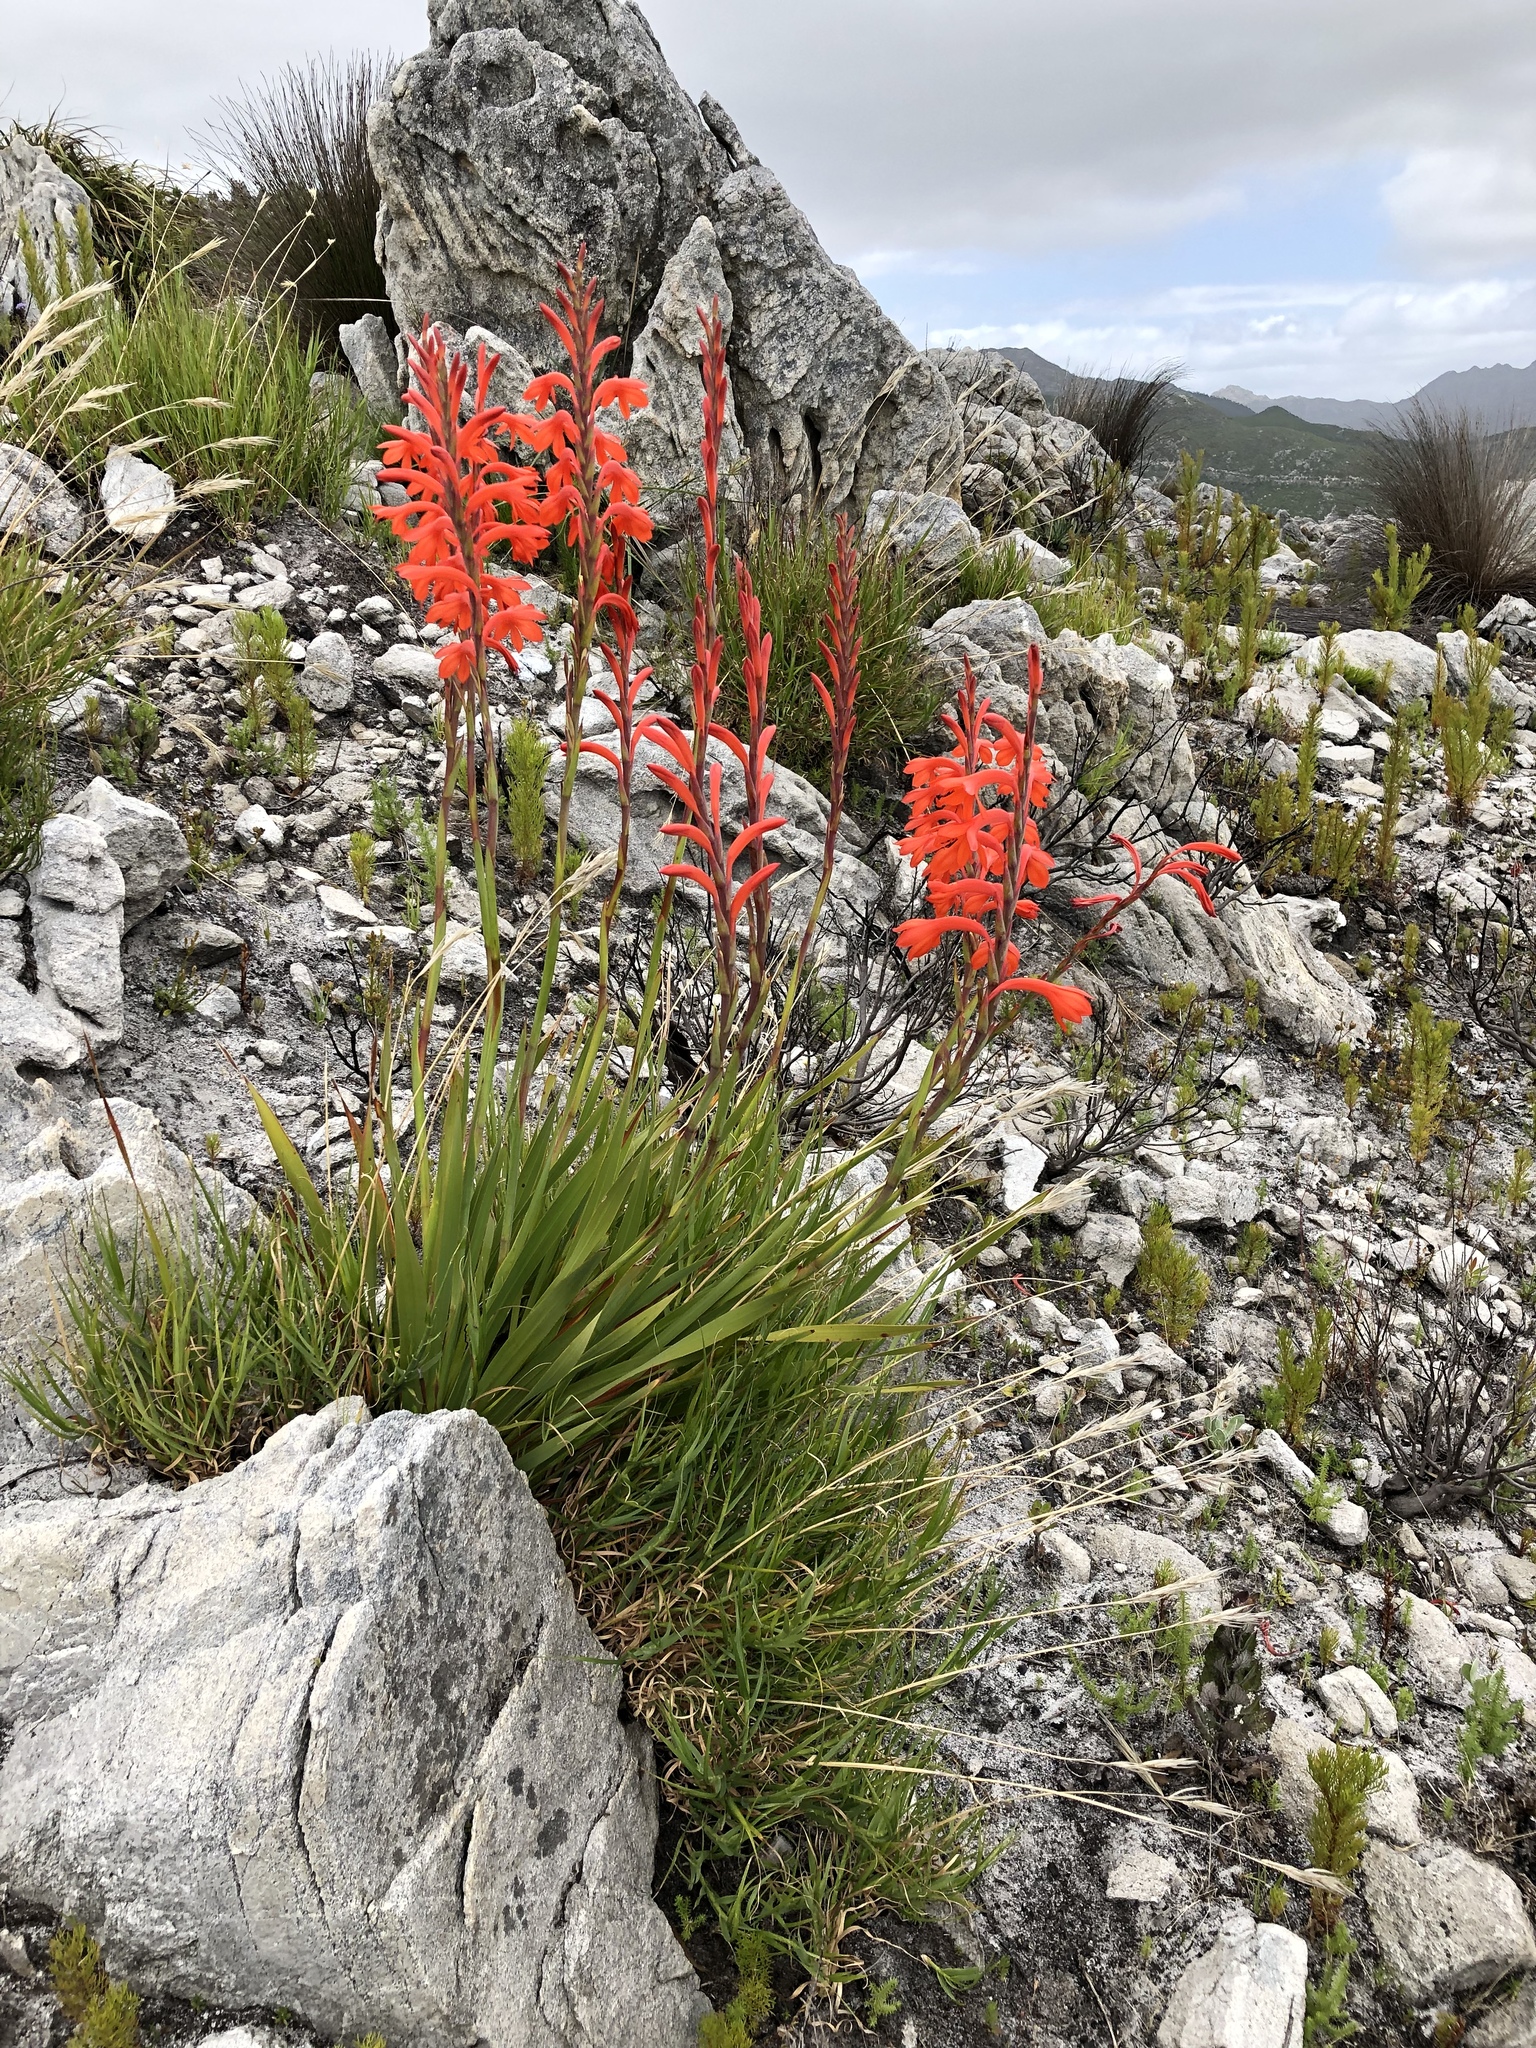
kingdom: Plantae
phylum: Tracheophyta
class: Liliopsida
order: Asparagales
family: Iridaceae
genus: Watsonia
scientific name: Watsonia schlechteri
